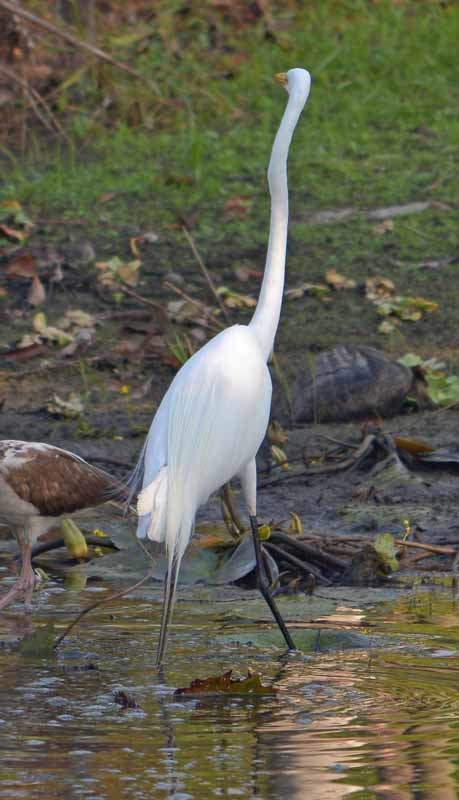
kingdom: Animalia
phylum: Chordata
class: Aves
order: Pelecaniformes
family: Ardeidae
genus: Ardea
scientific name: Ardea alba
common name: Great egret
